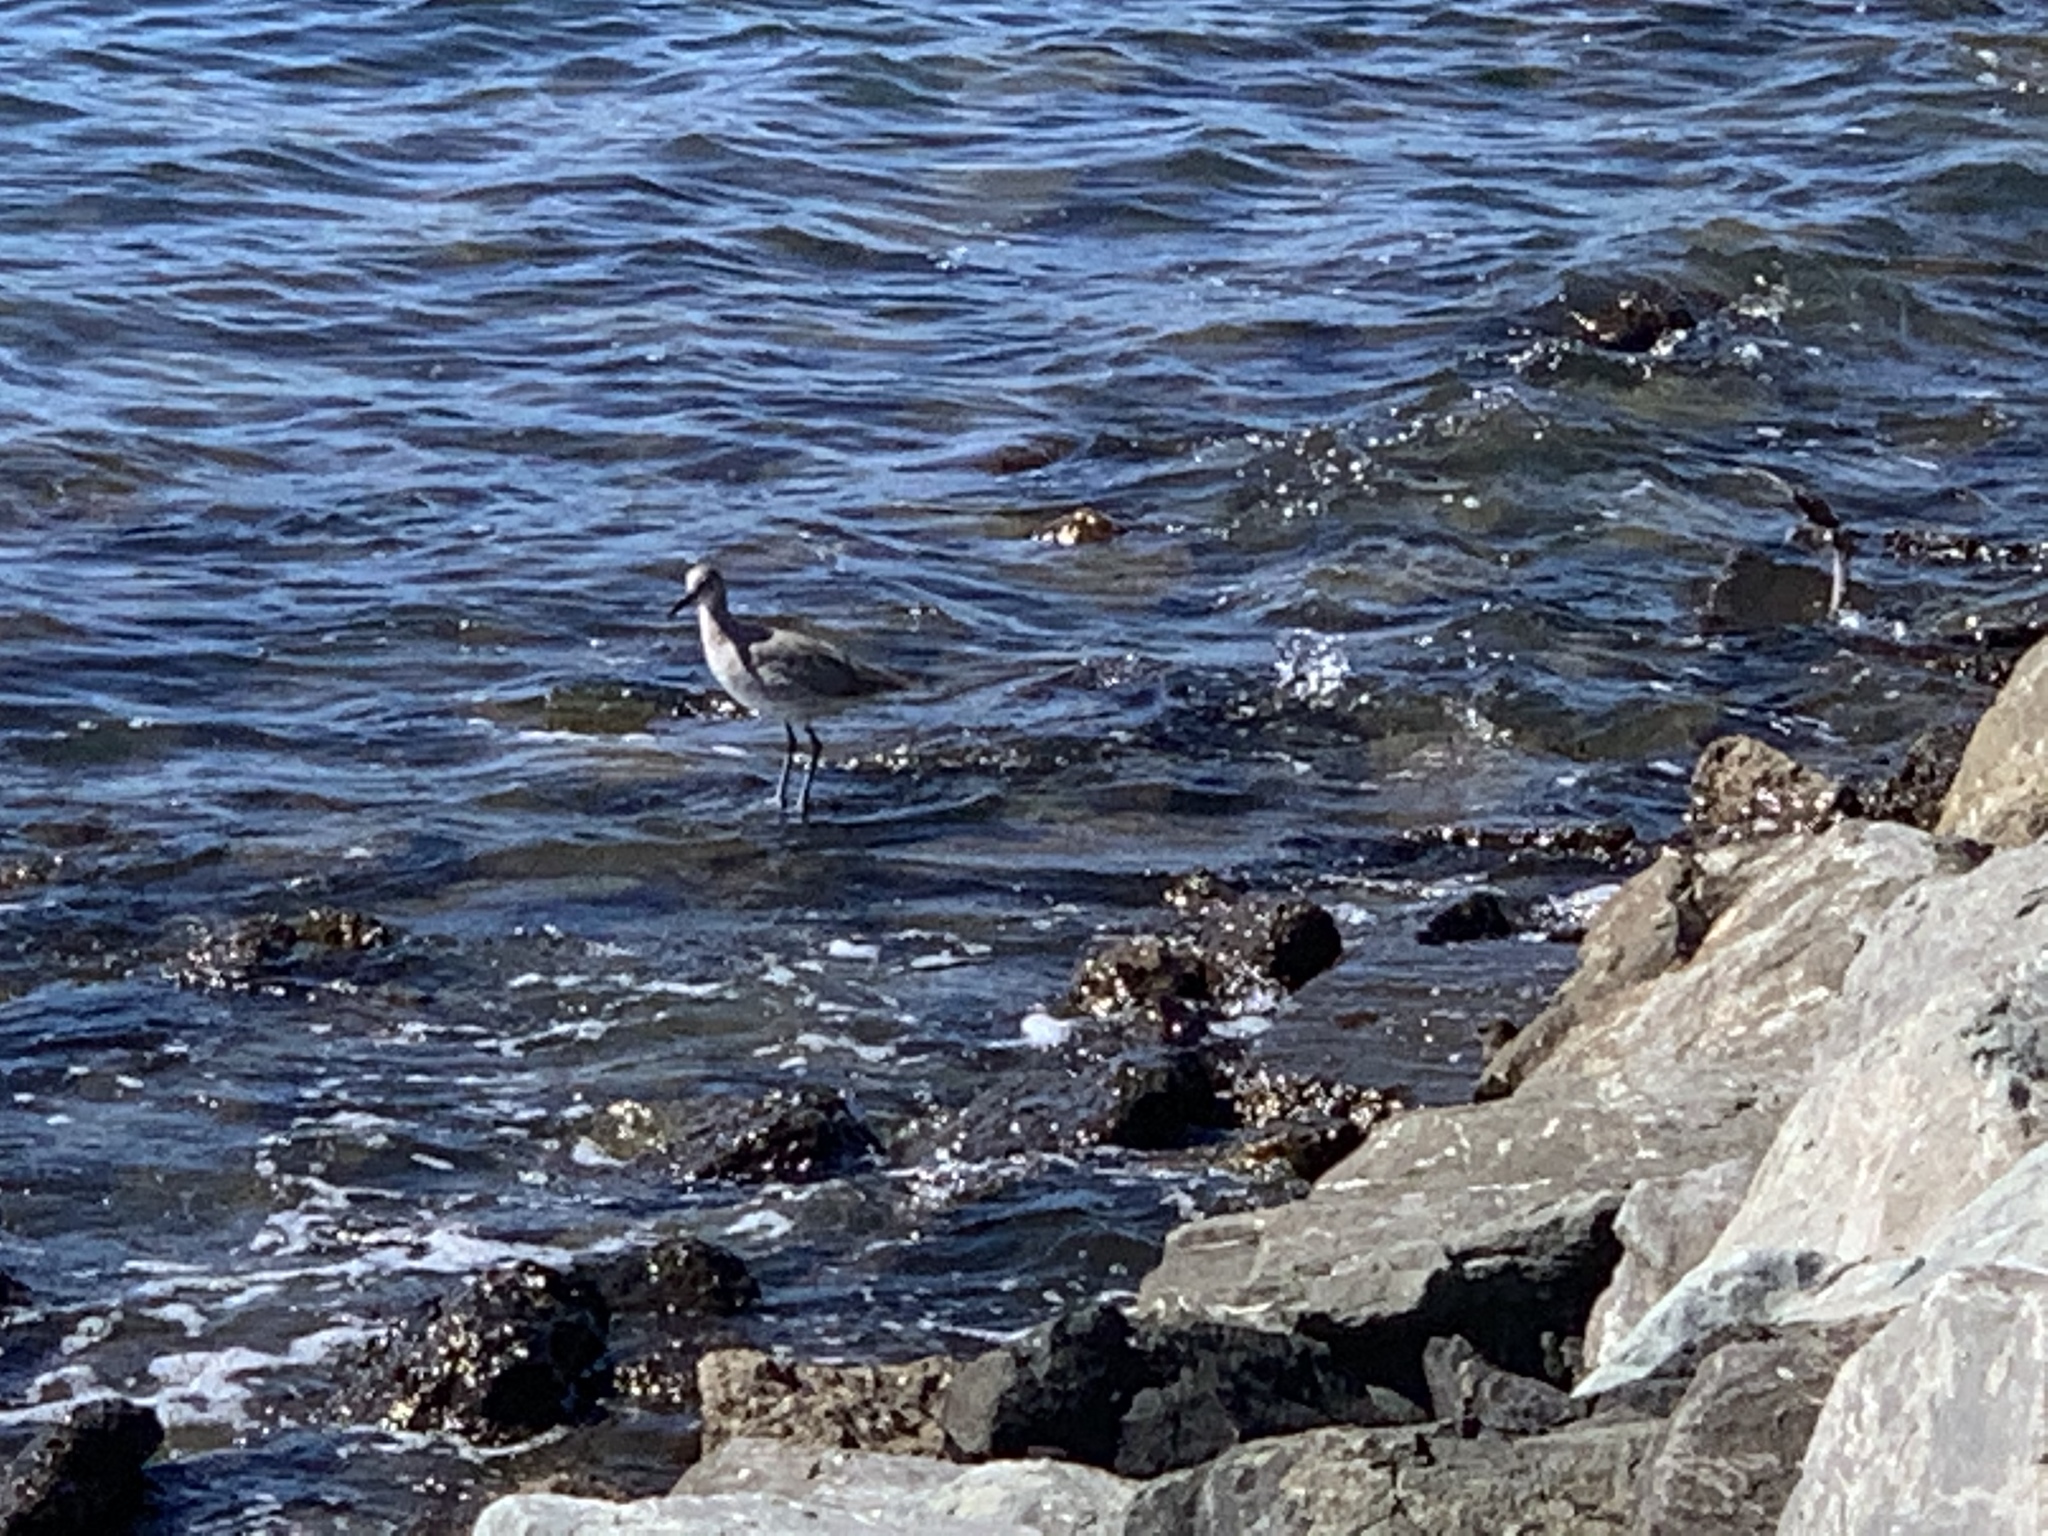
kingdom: Animalia
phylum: Chordata
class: Aves
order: Charadriiformes
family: Scolopacidae
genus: Tringa
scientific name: Tringa semipalmata
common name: Willet
